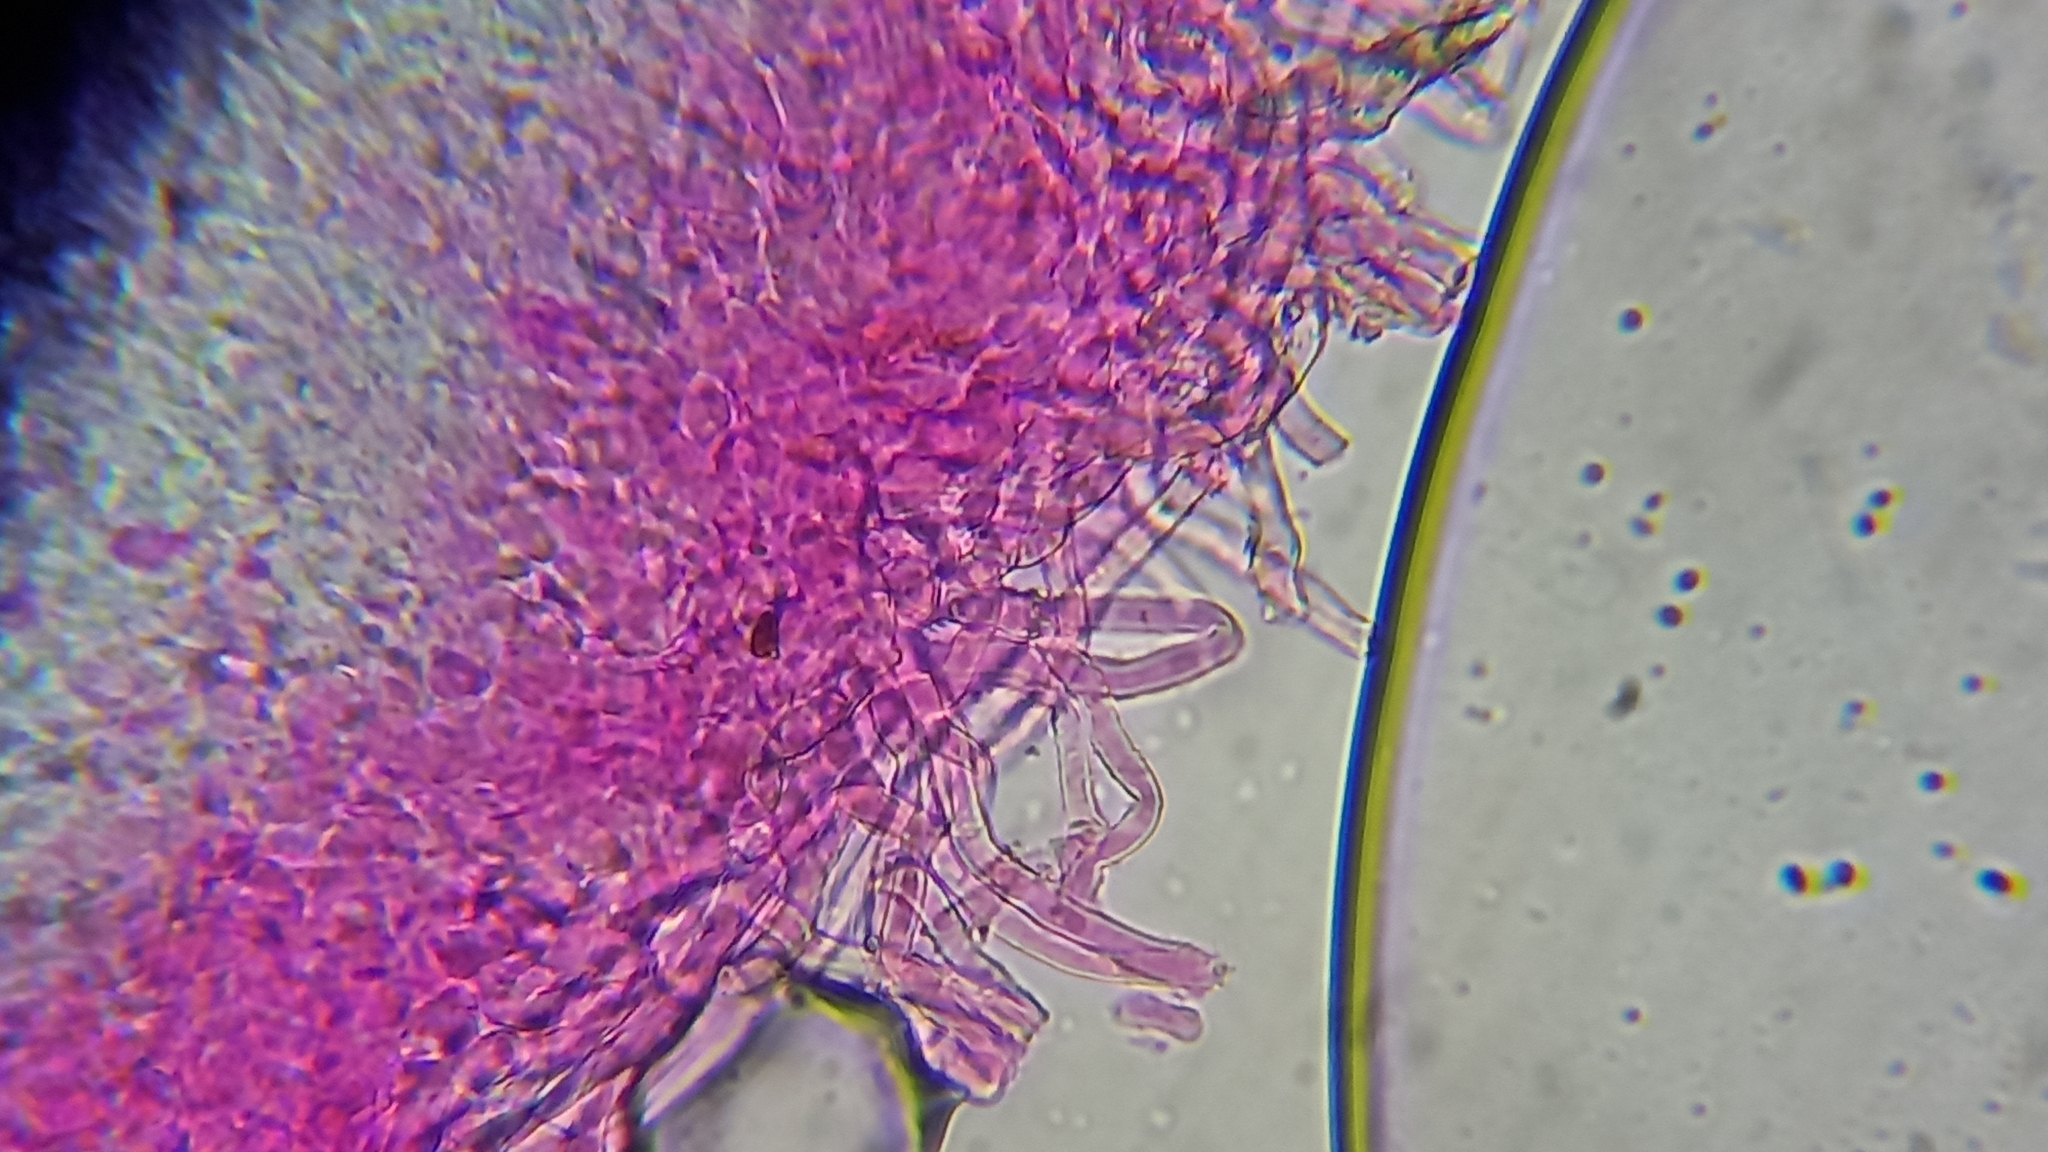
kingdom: Fungi
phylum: Ascomycota
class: Pezizomycetes
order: Pezizales
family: Sarcoscyphaceae
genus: Sarcoscypha
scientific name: Sarcoscypha austriaca
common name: Scarlet elfcup
